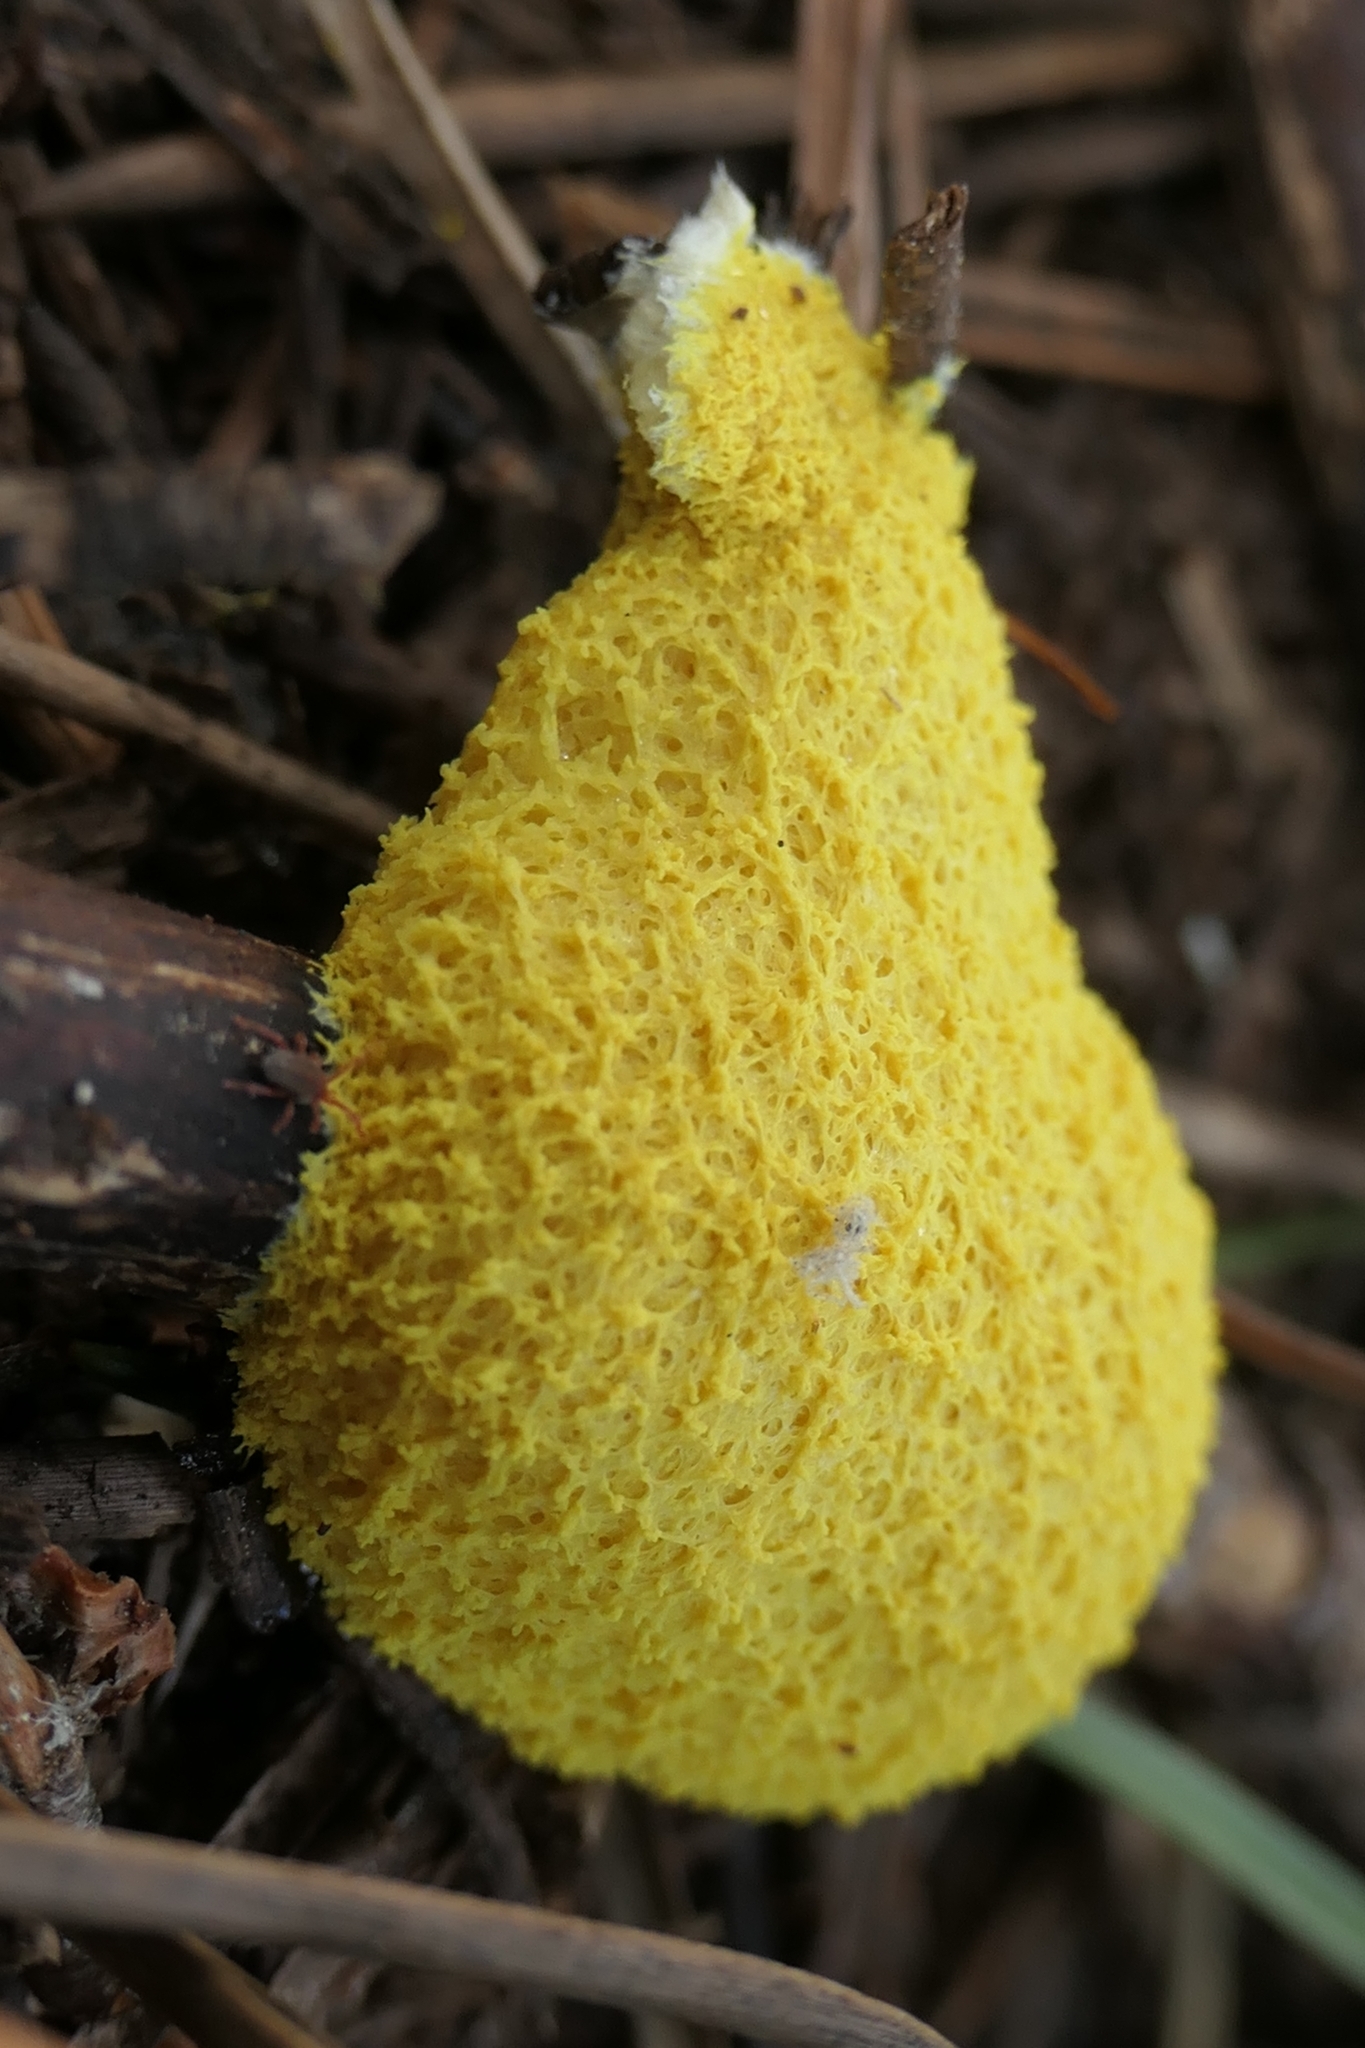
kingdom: Protozoa
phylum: Mycetozoa
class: Myxomycetes
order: Physarales
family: Physaraceae
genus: Fuligo
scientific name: Fuligo septica
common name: Dog vomit slime mold
